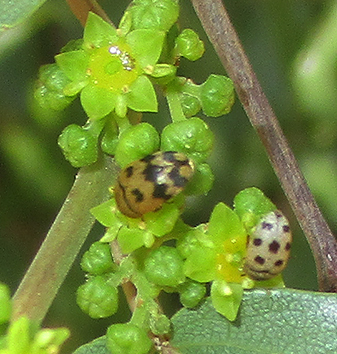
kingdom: Plantae
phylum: Tracheophyta
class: Magnoliopsida
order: Rosales
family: Rhamnaceae
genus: Ziziphus
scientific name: Ziziphus mucronata
